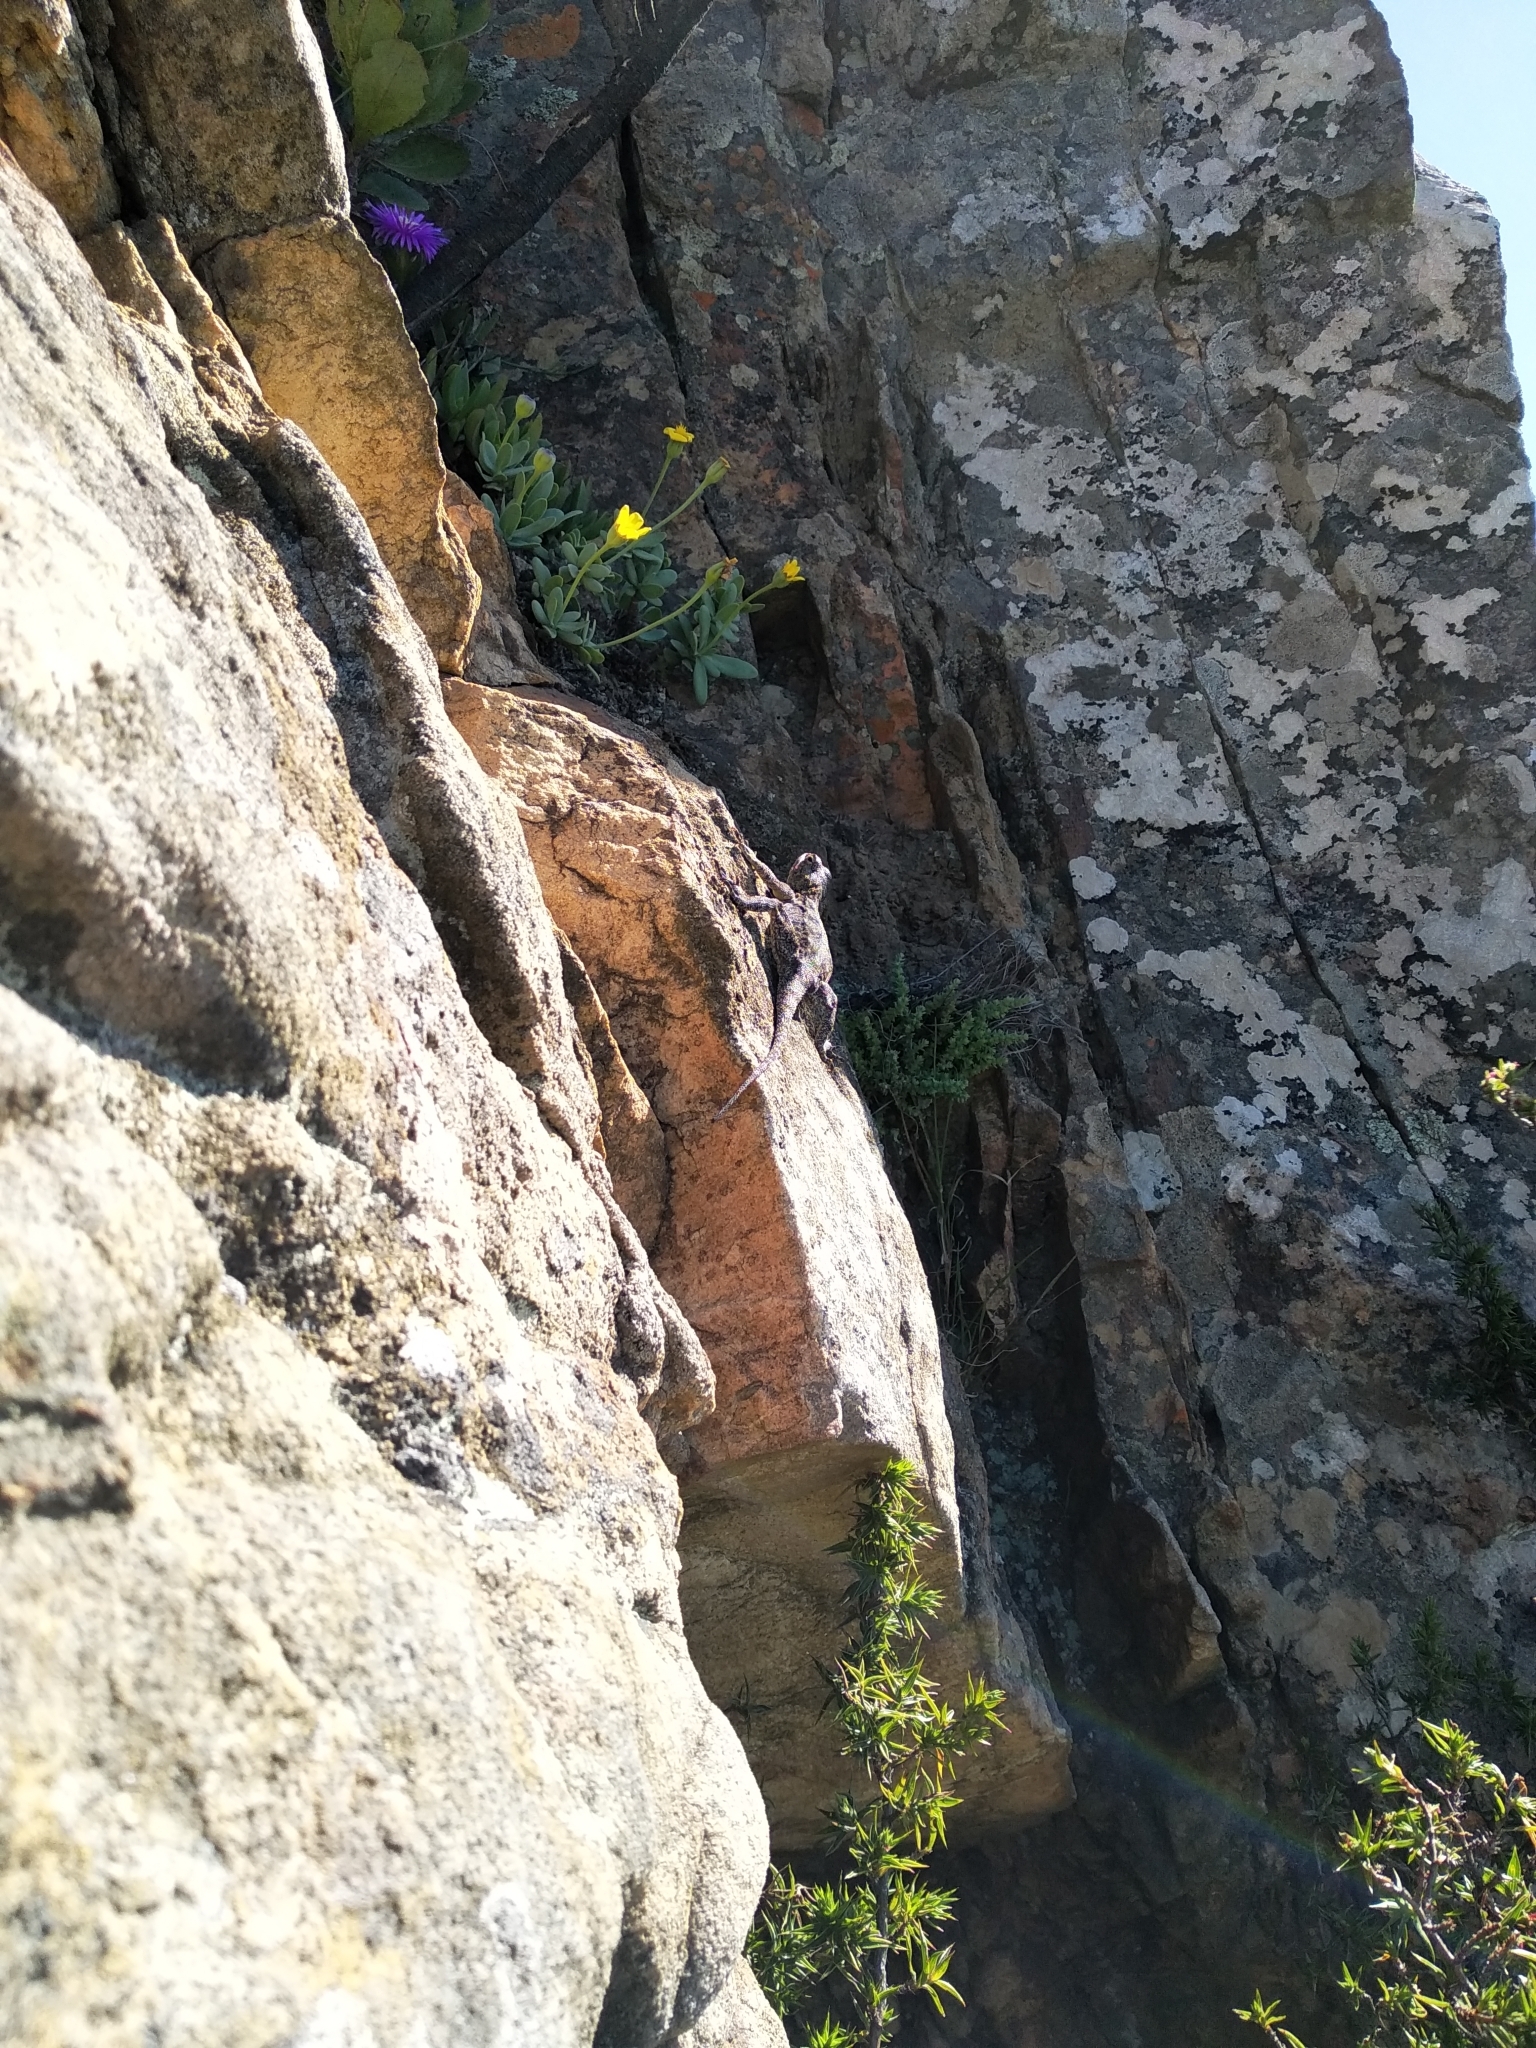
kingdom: Animalia
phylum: Chordata
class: Squamata
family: Agamidae
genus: Agama
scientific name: Agama atra
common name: Southern african rock agama
